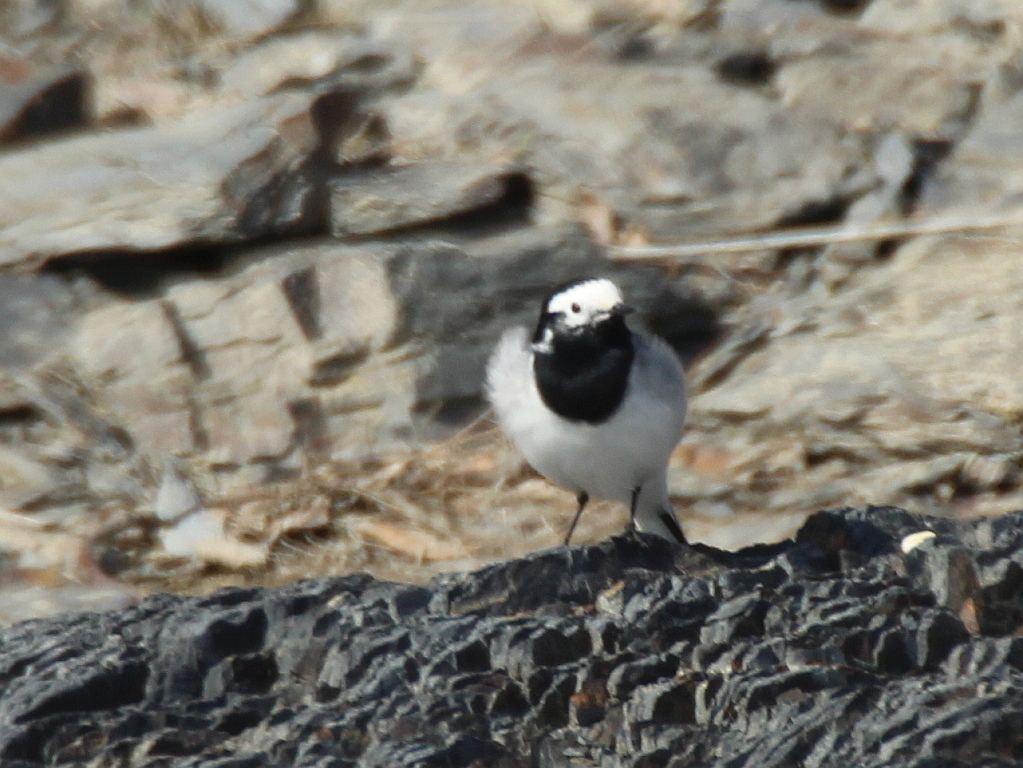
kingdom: Animalia
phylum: Chordata
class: Aves
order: Passeriformes
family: Motacillidae
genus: Motacilla
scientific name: Motacilla alba
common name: White wagtail
